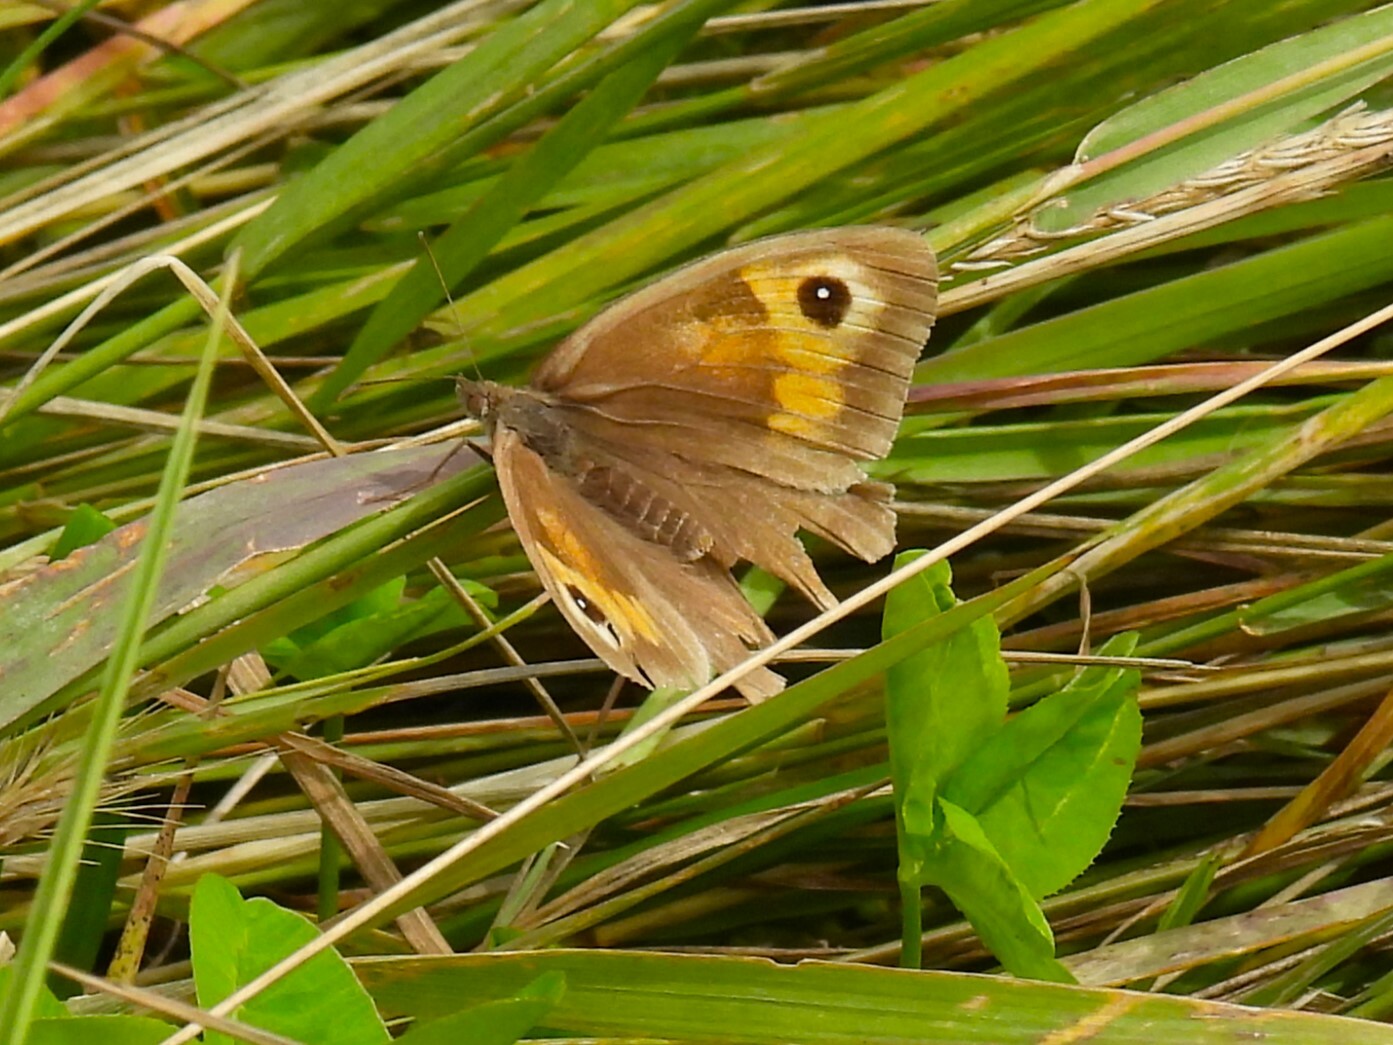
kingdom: Animalia
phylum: Arthropoda
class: Insecta
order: Lepidoptera
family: Nymphalidae
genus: Maniola
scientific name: Maniola jurtina
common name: Meadow brown
